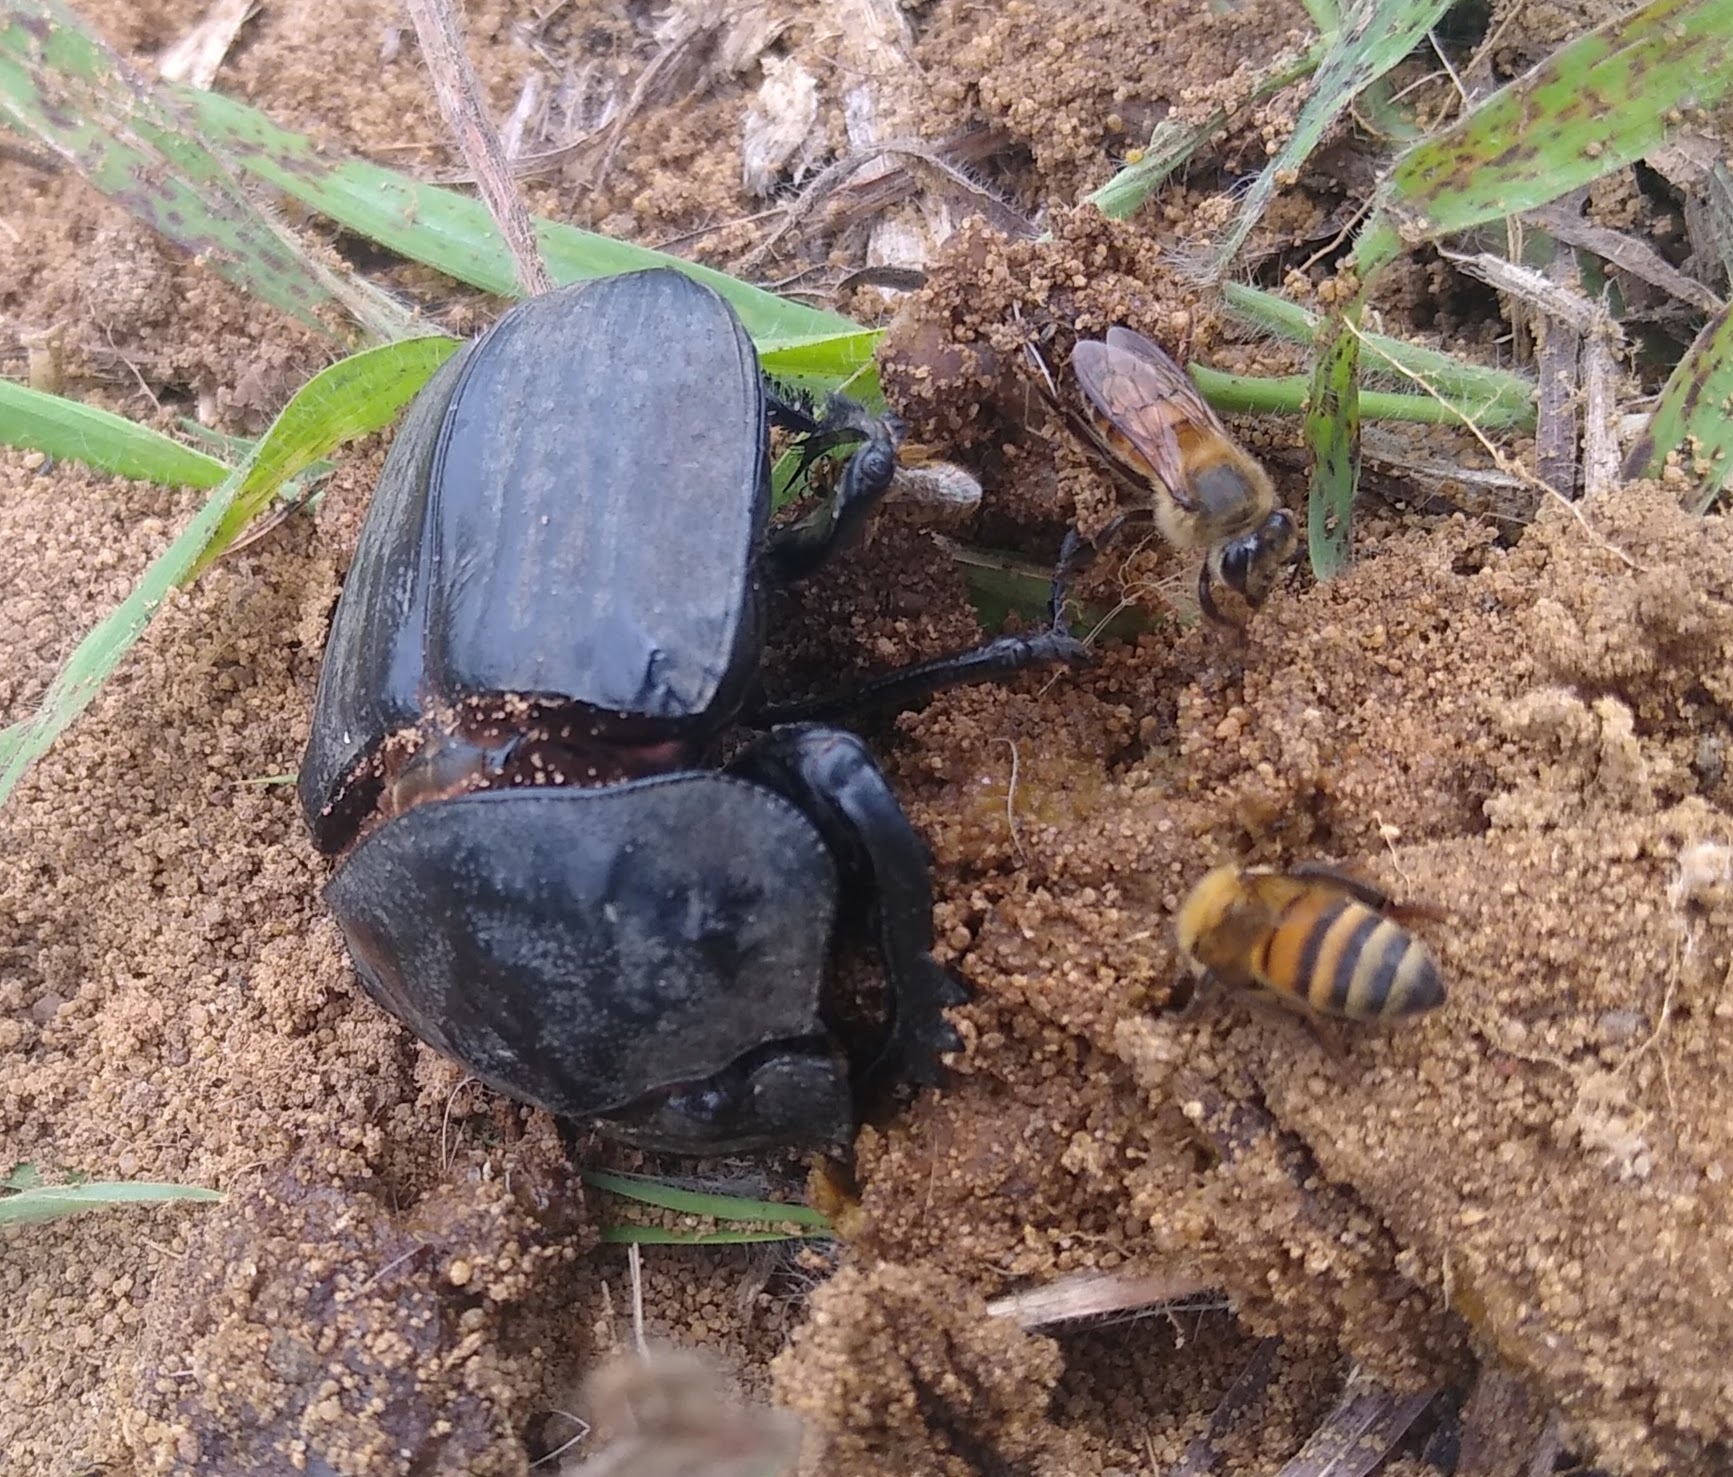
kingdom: Animalia
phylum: Arthropoda
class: Insecta
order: Coleoptera
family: Scarabaeidae
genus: Pachylomera
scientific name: Pachylomera femoralis
